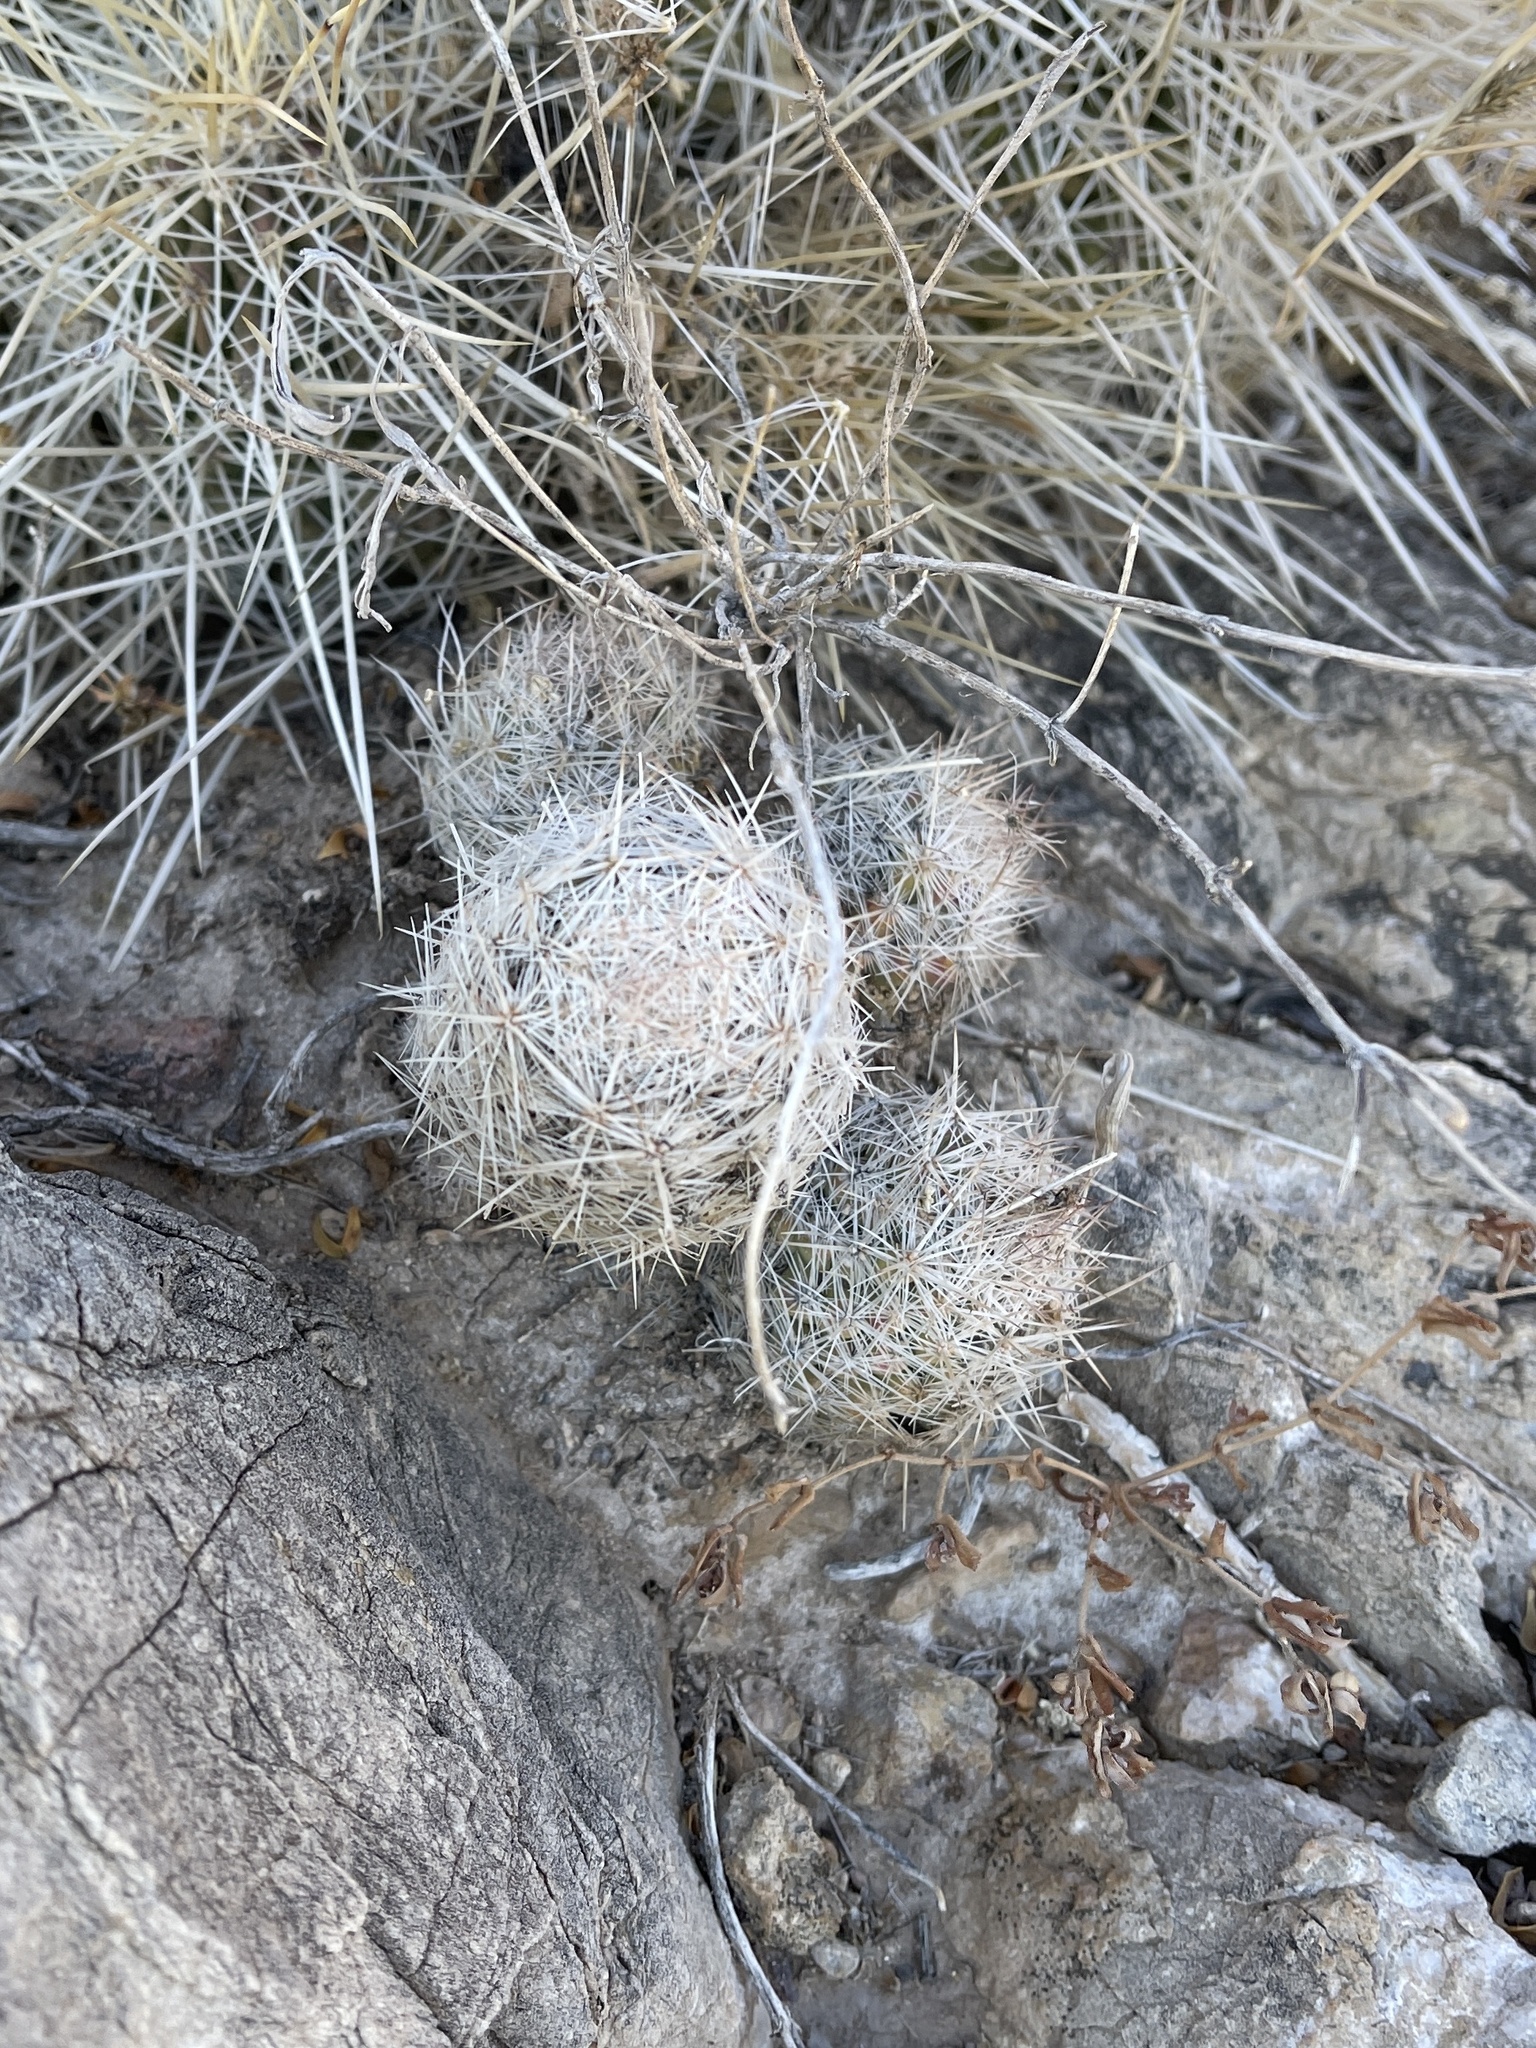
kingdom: Plantae
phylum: Tracheophyta
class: Magnoliopsida
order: Caryophyllales
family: Cactaceae
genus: Pelecyphora
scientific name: Pelecyphora tuberculosa
